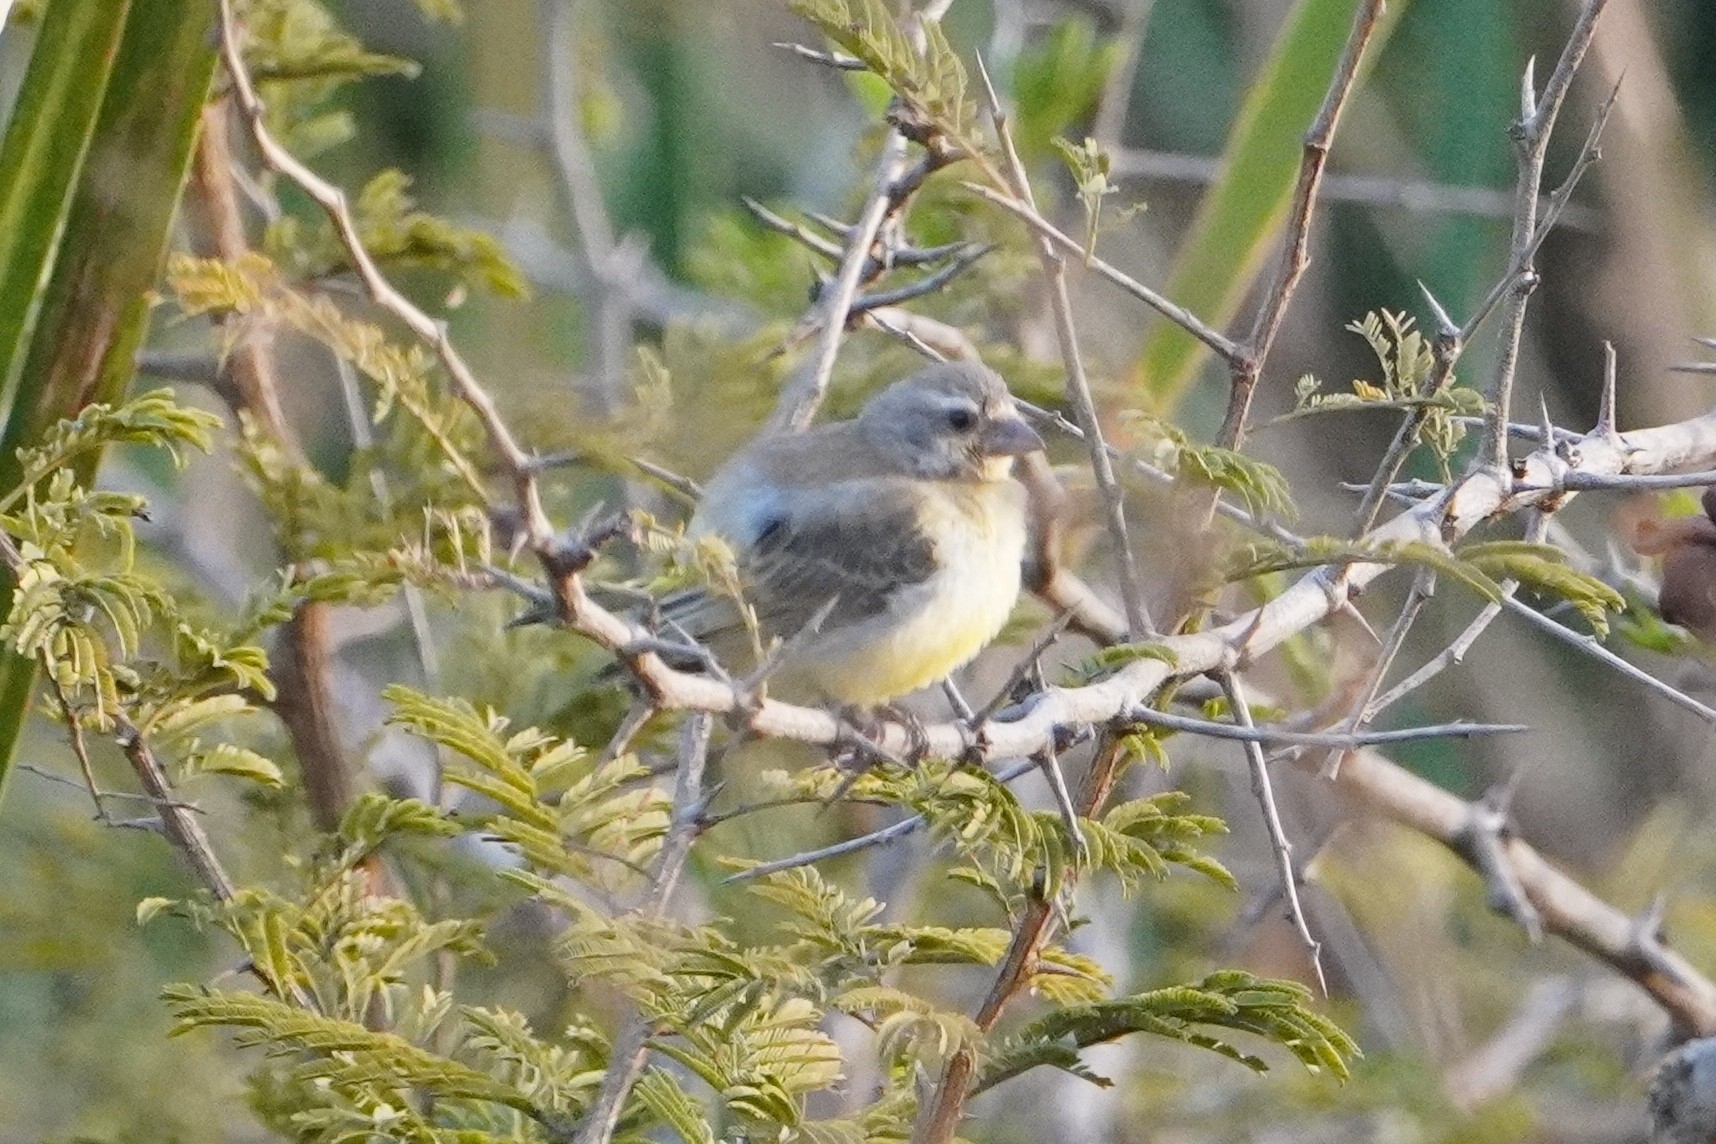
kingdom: Animalia
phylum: Chordata
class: Aves
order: Passeriformes
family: Fringillidae
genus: Crithagra
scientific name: Crithagra mozambica
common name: Yellow-fronted canary
